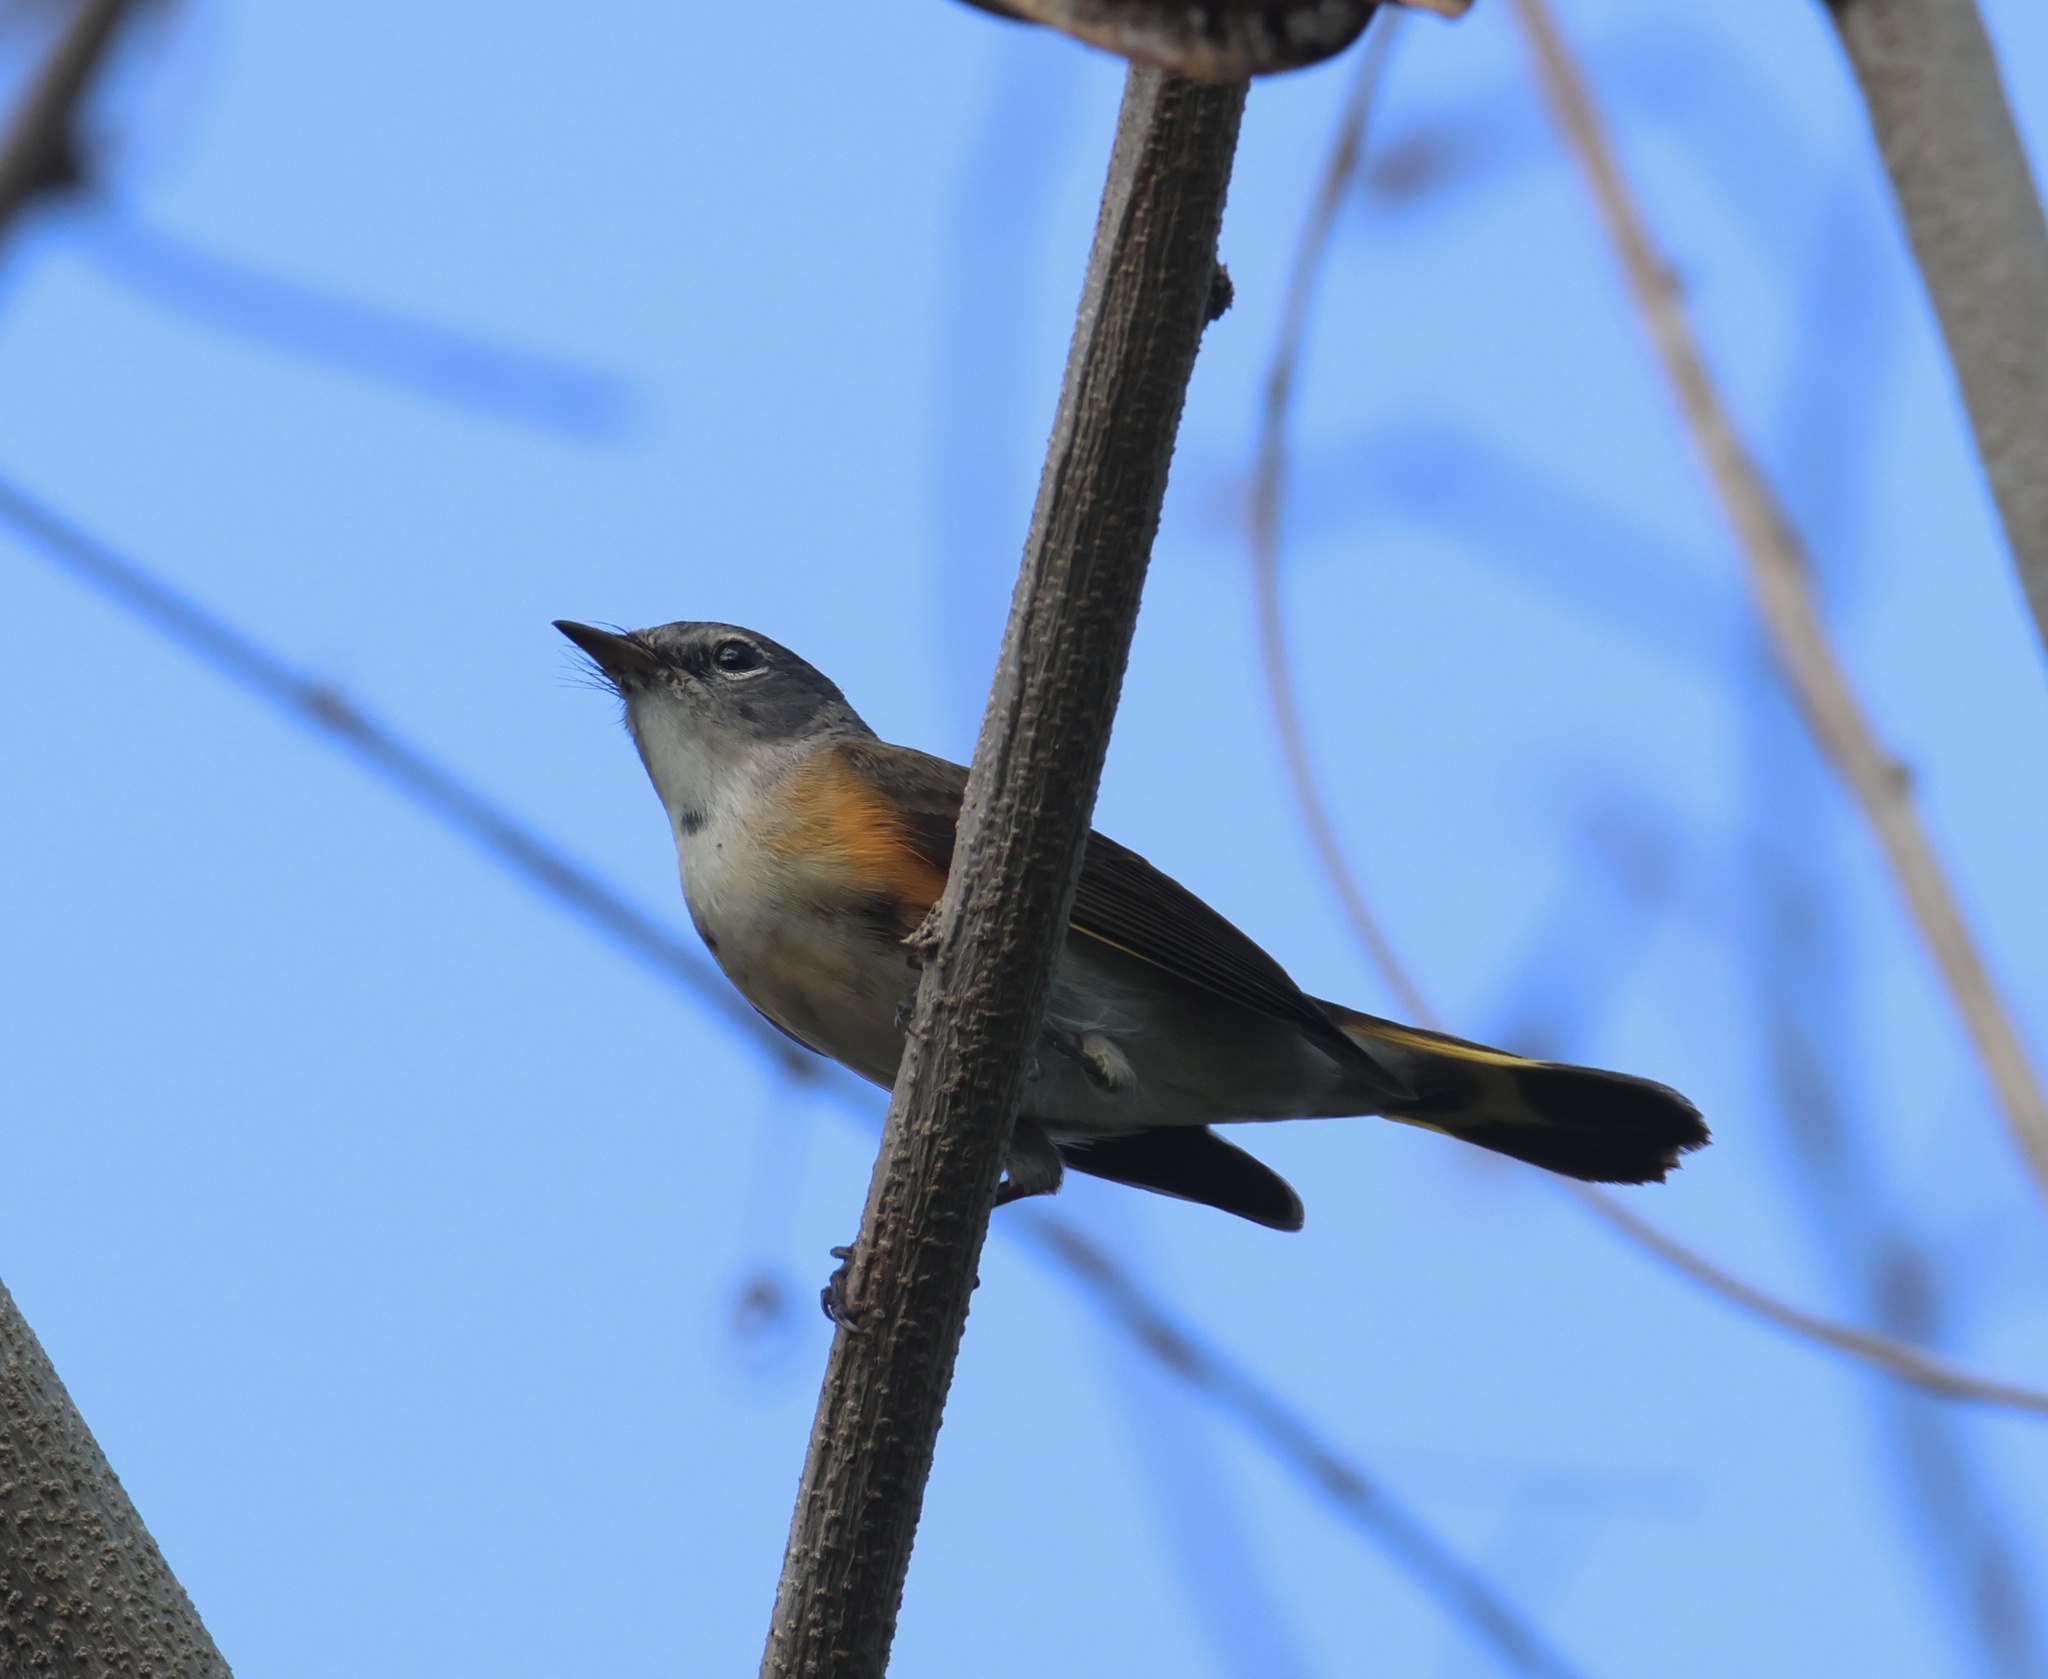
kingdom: Animalia
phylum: Chordata
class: Aves
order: Passeriformes
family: Parulidae
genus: Setophaga
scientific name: Setophaga ruticilla
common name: American redstart
